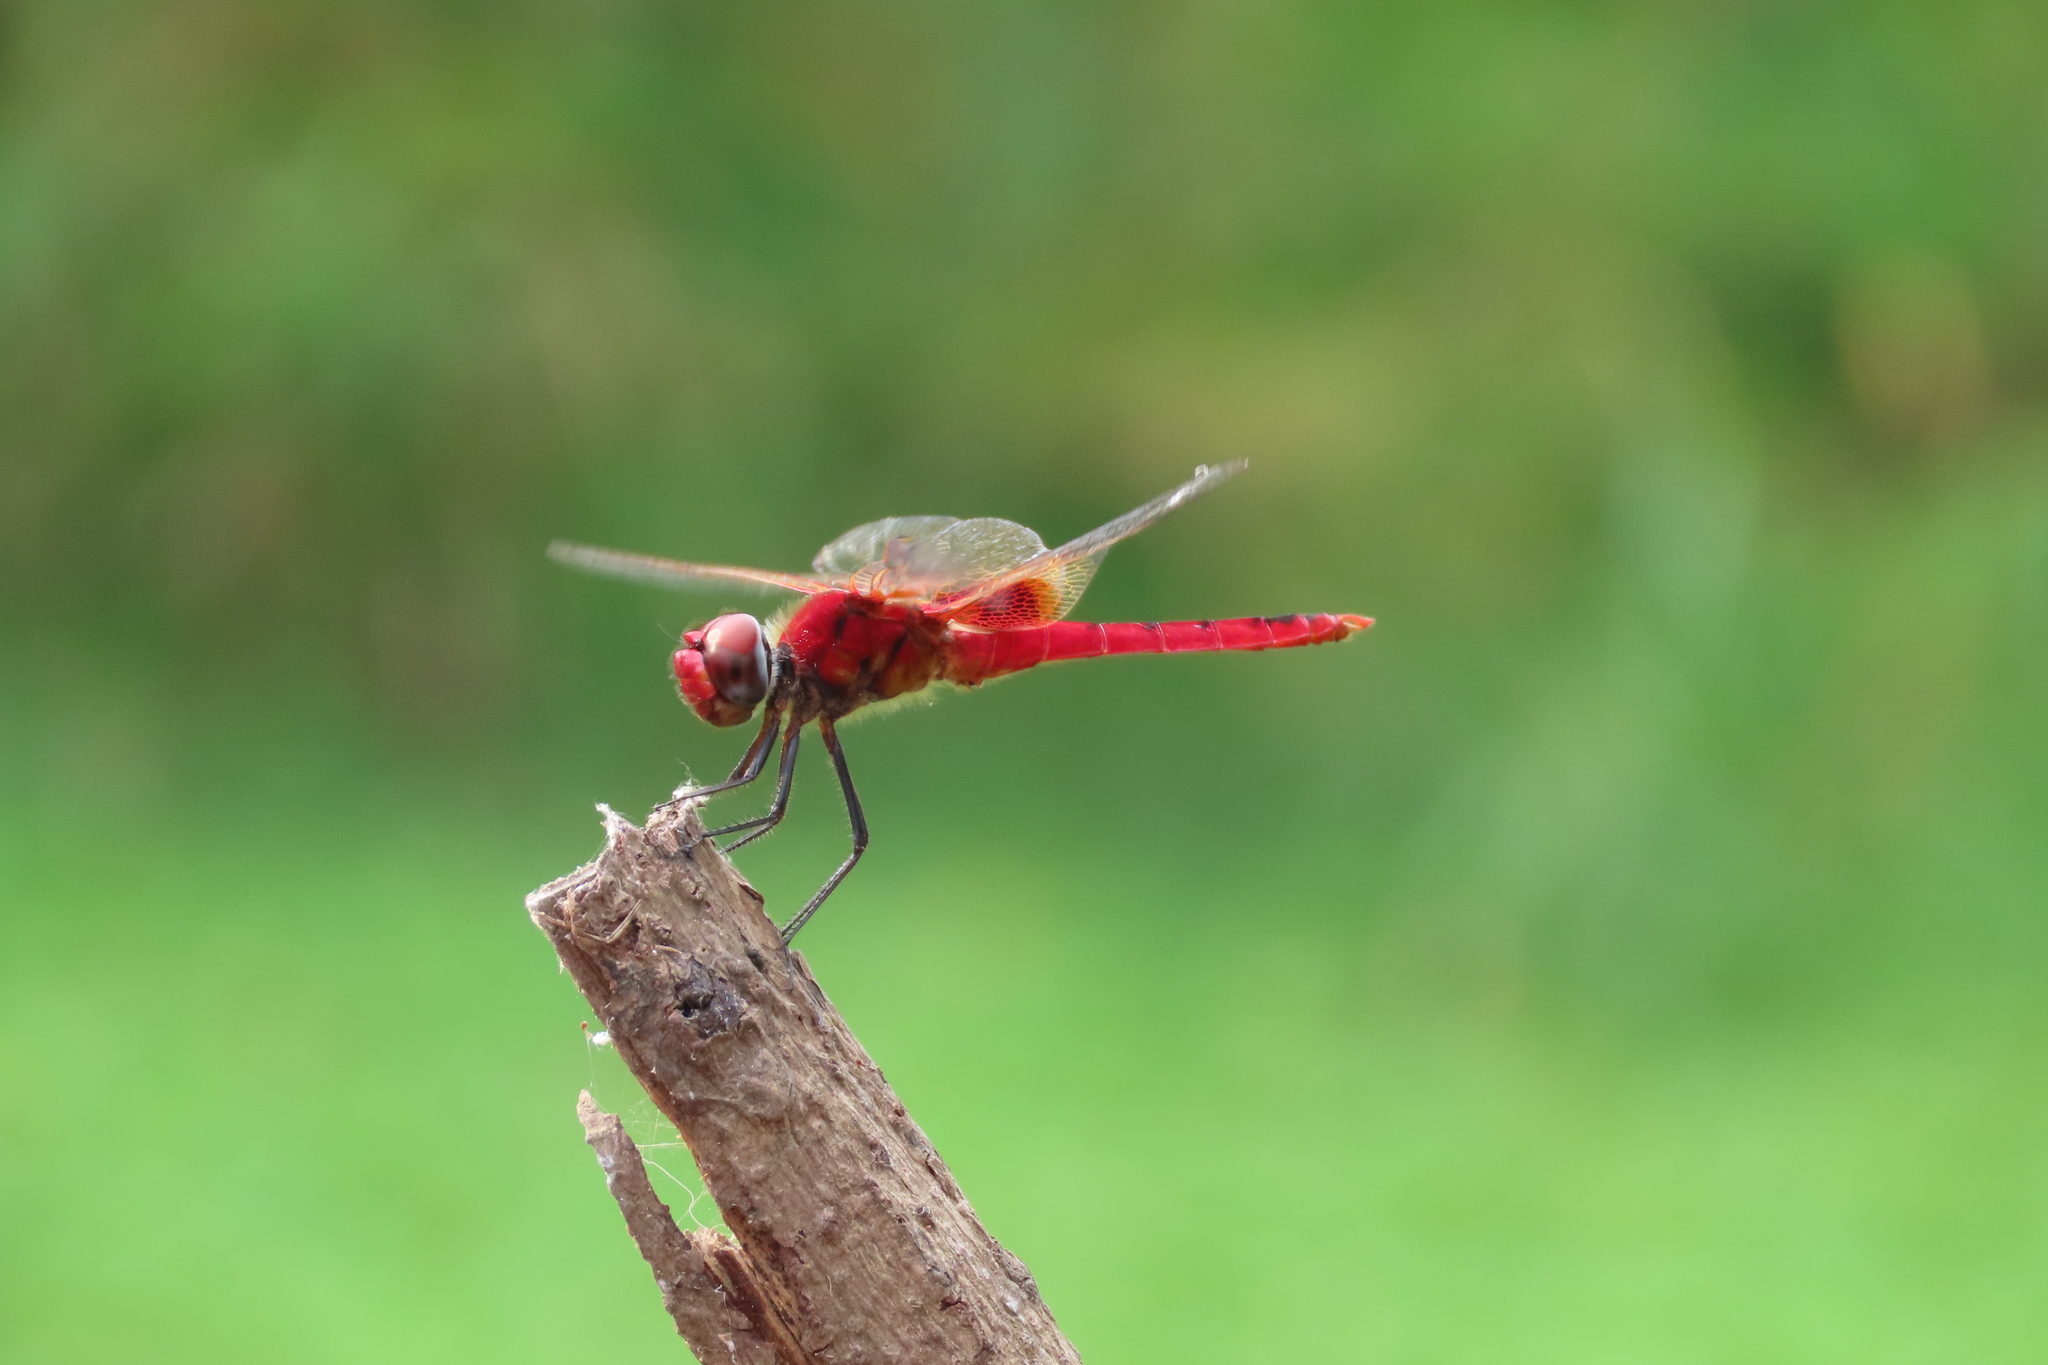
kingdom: Animalia
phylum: Arthropoda
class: Insecta
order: Odonata
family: Libellulidae
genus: Urothemis
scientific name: Urothemis signata
